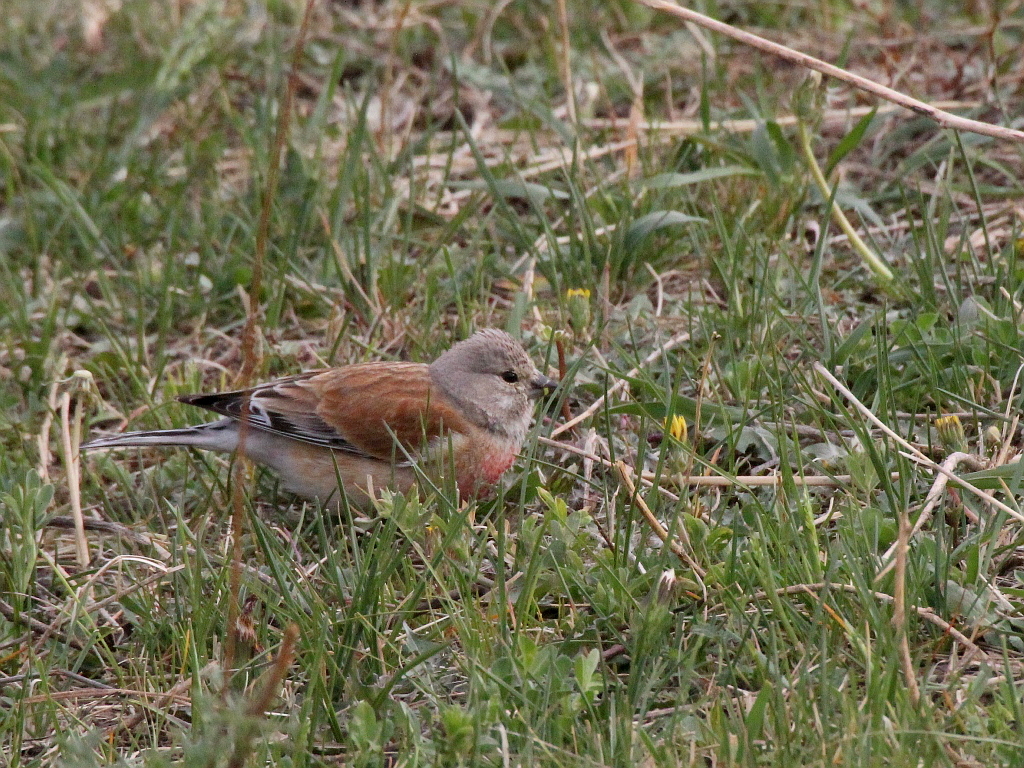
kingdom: Animalia
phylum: Chordata
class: Aves
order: Passeriformes
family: Fringillidae
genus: Linaria
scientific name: Linaria cannabina
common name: Common linnet
